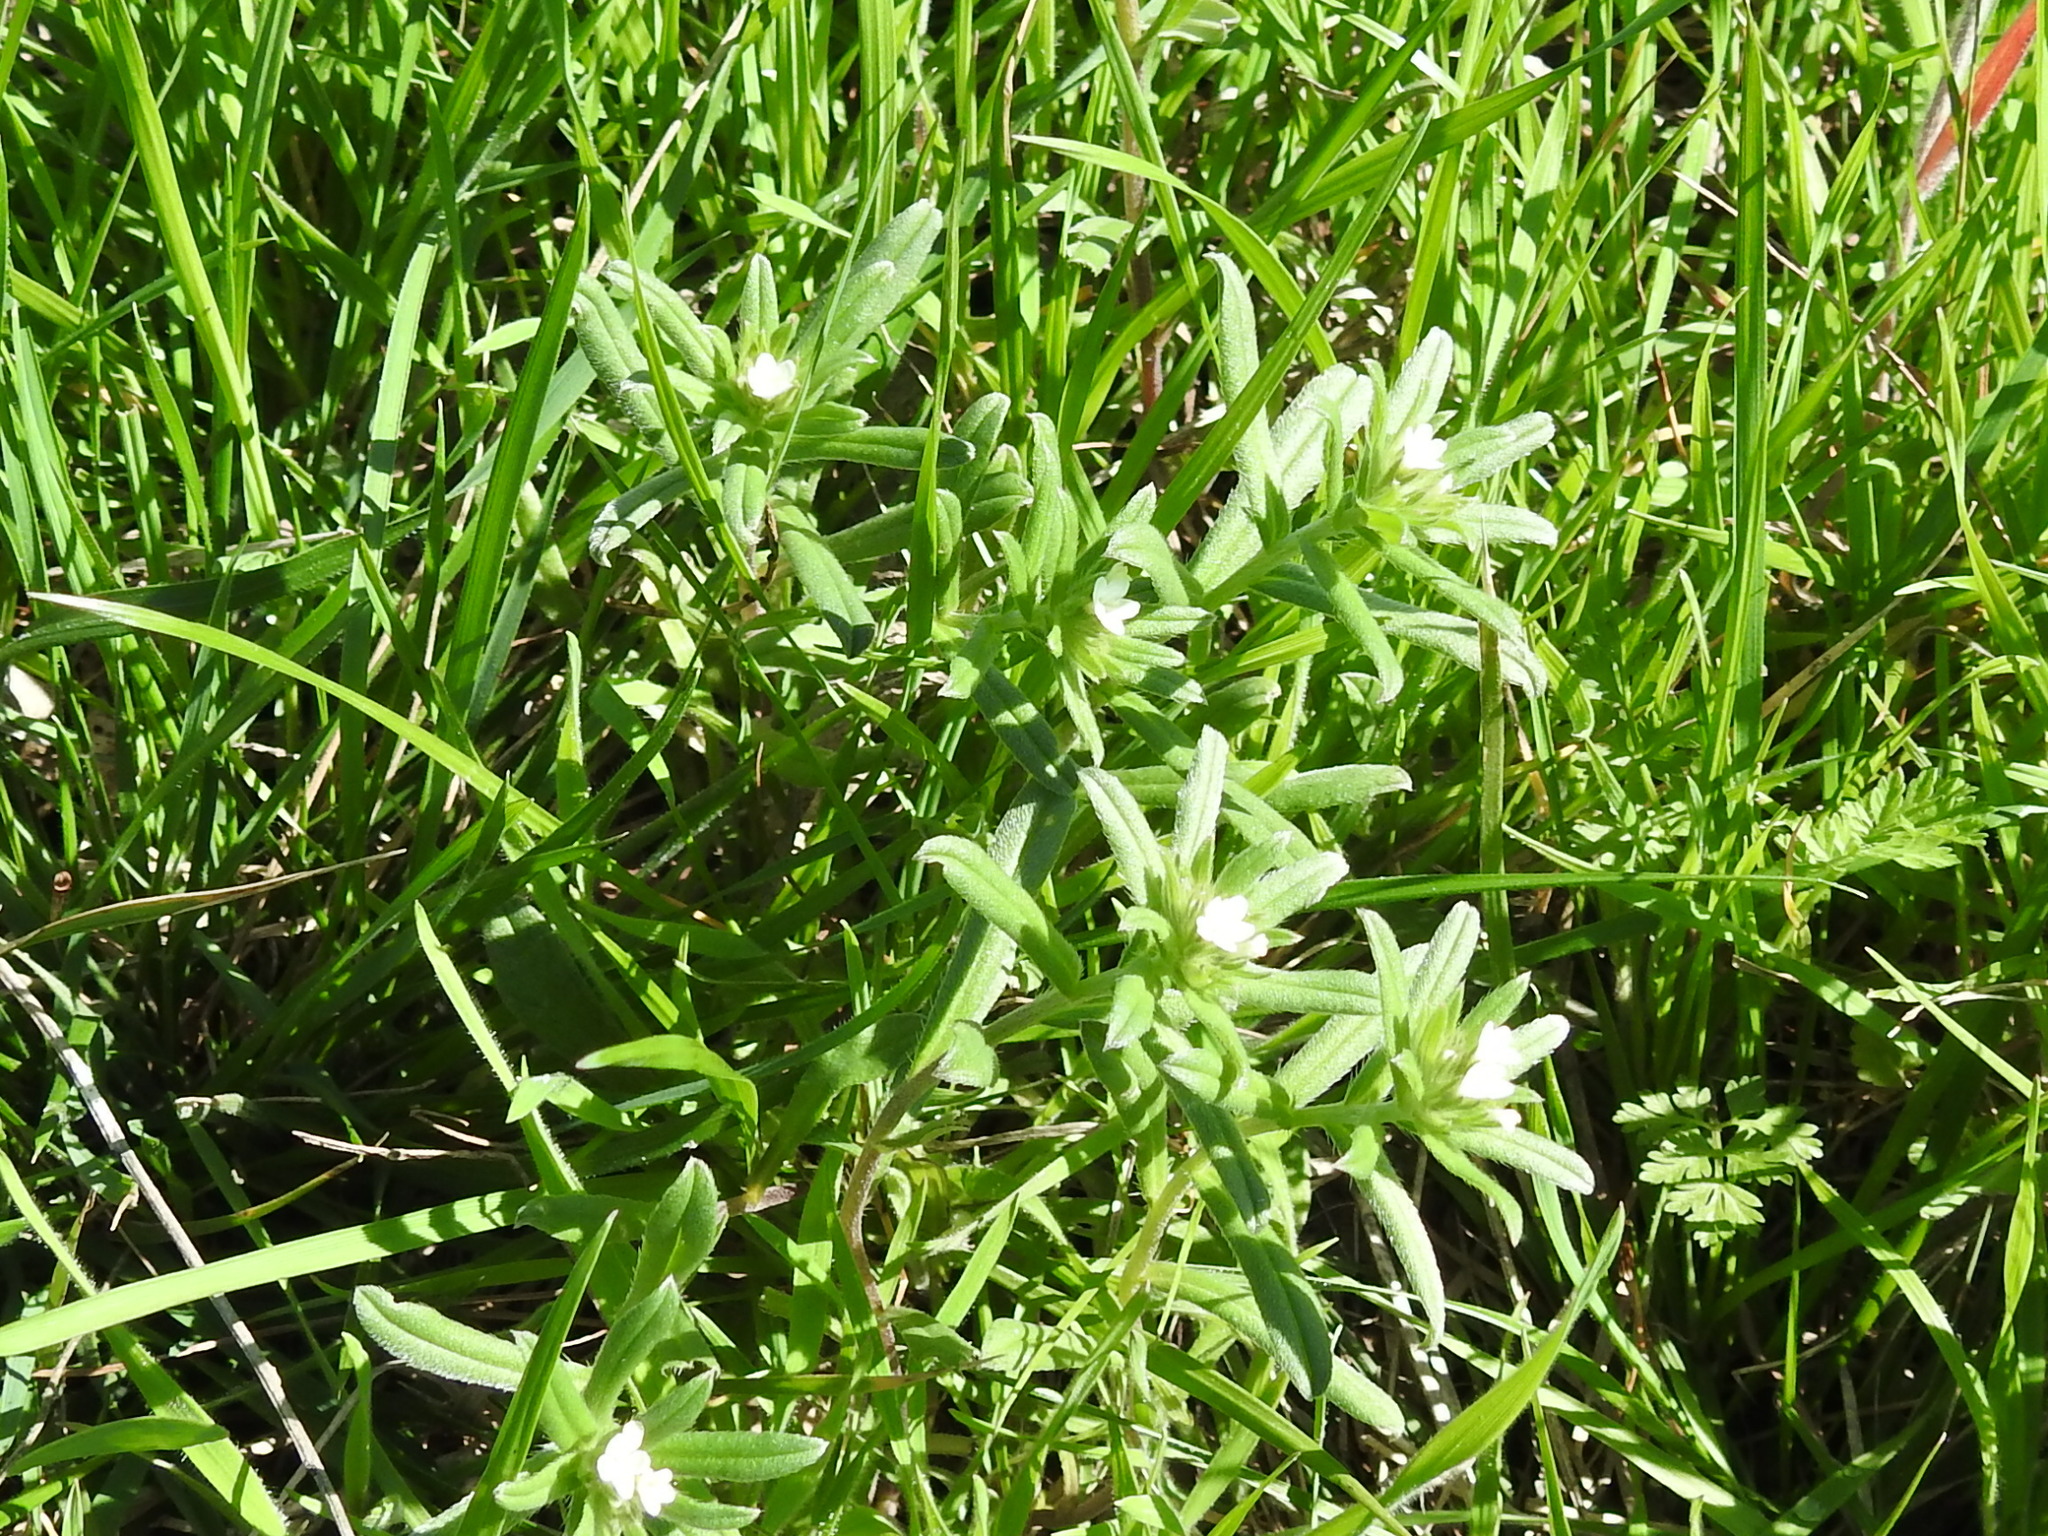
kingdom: Plantae
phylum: Tracheophyta
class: Magnoliopsida
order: Boraginales
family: Boraginaceae
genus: Buglossoides
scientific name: Buglossoides arvensis
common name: Corn gromwell
